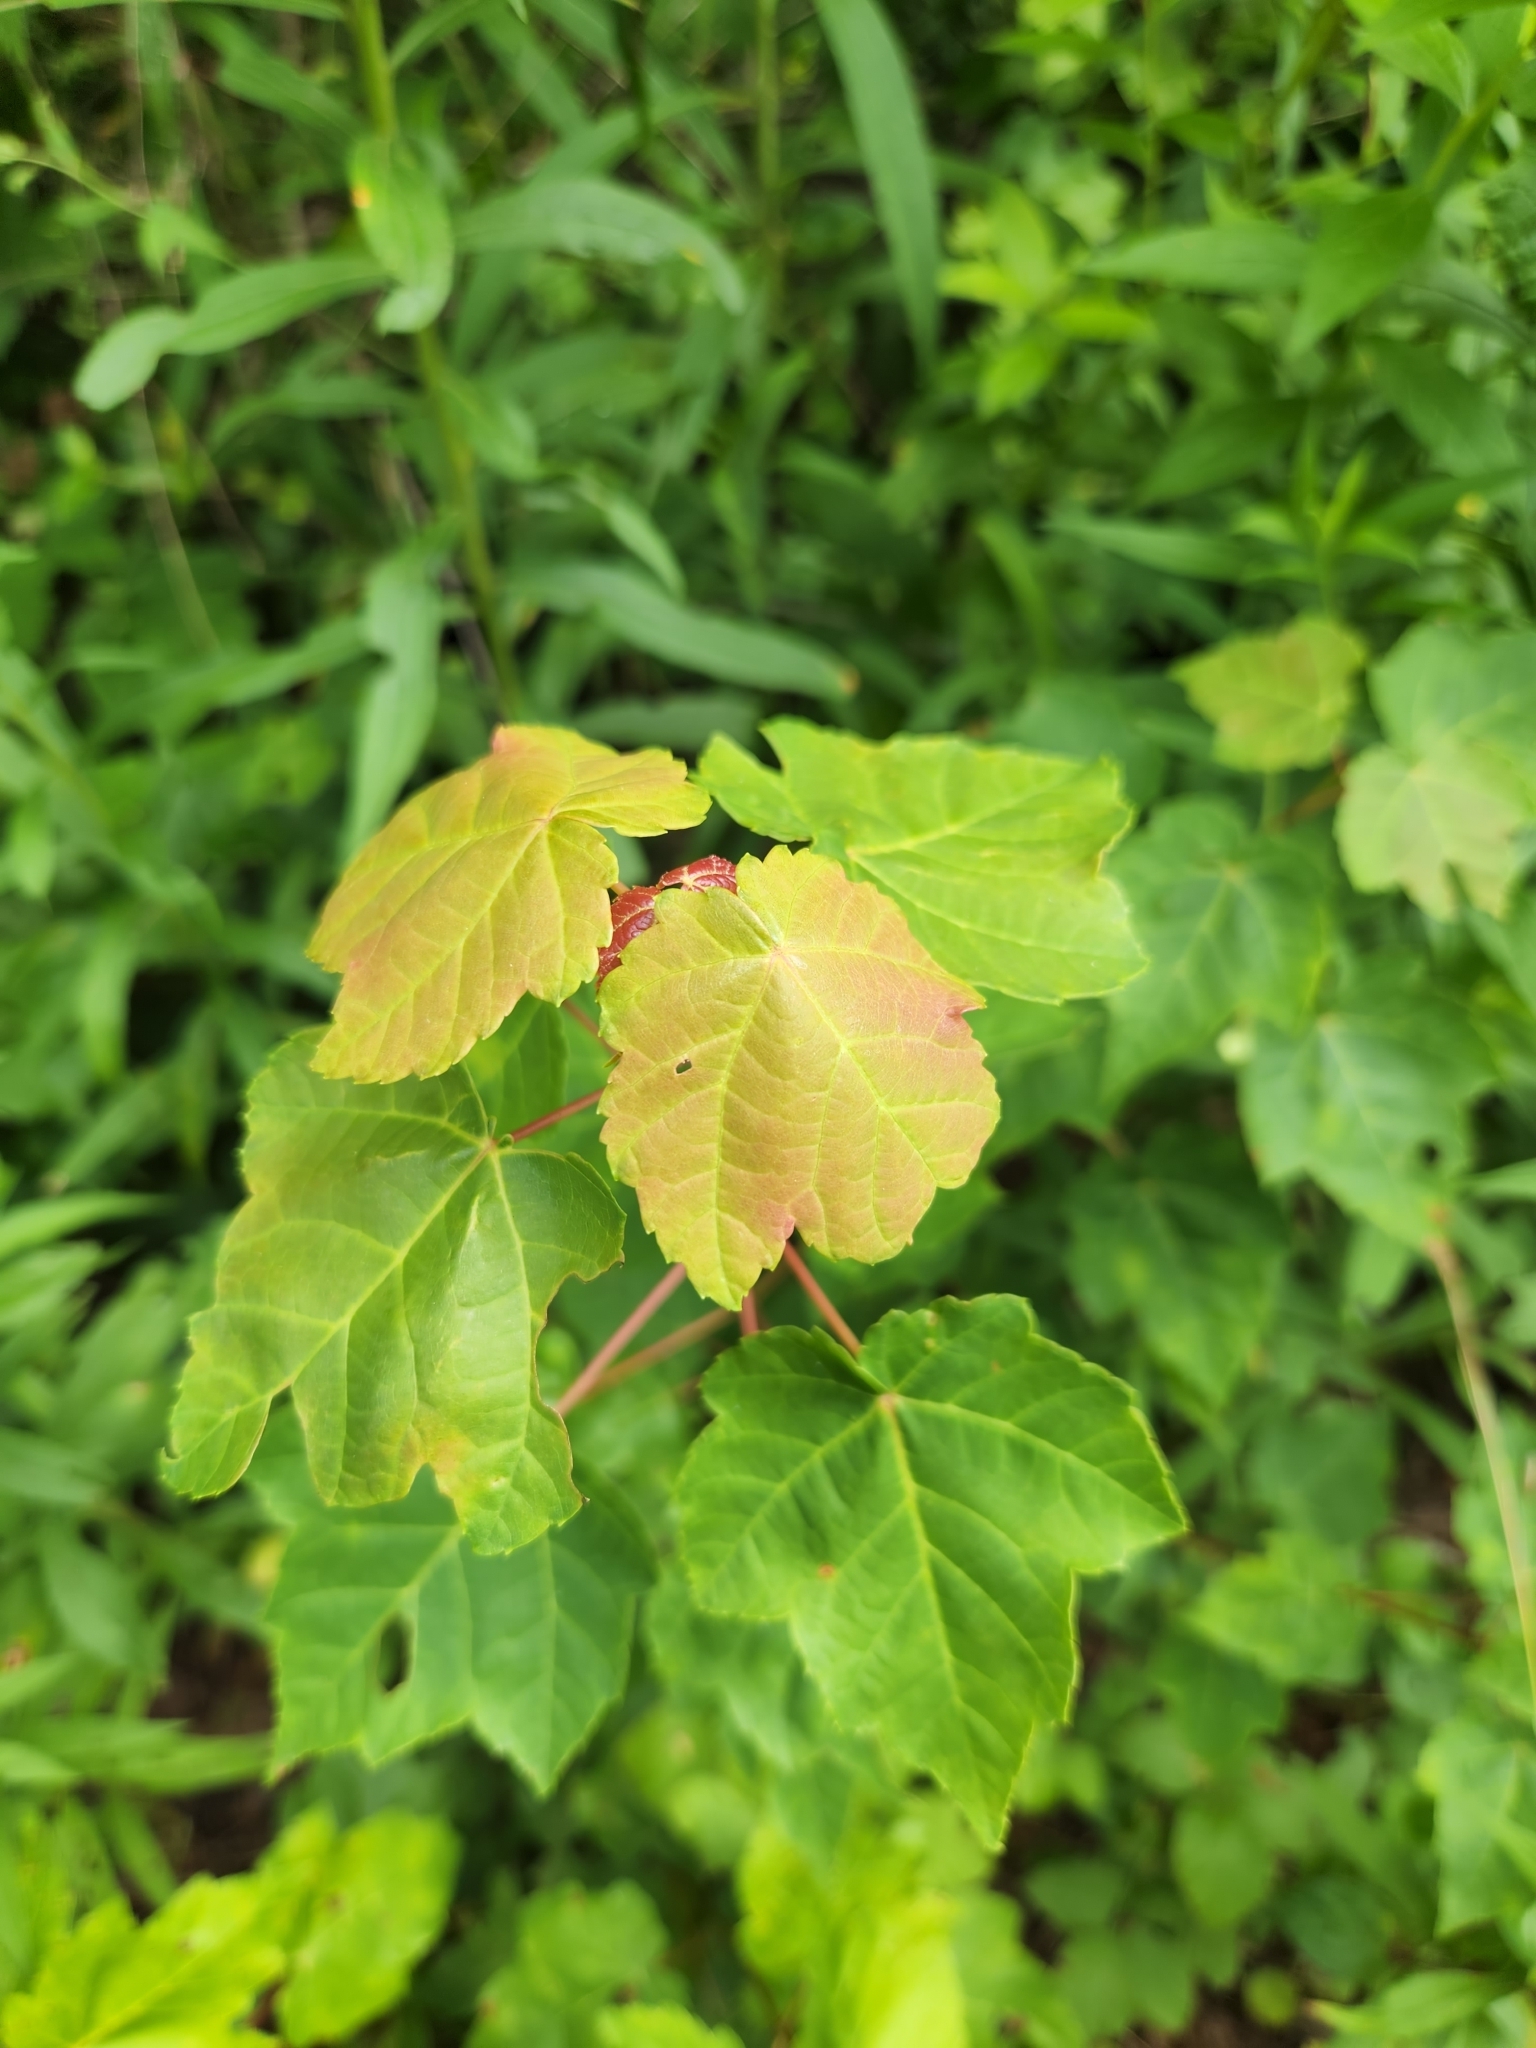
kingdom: Plantae
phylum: Tracheophyta
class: Magnoliopsida
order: Sapindales
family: Sapindaceae
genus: Acer
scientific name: Acer rubrum
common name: Red maple
